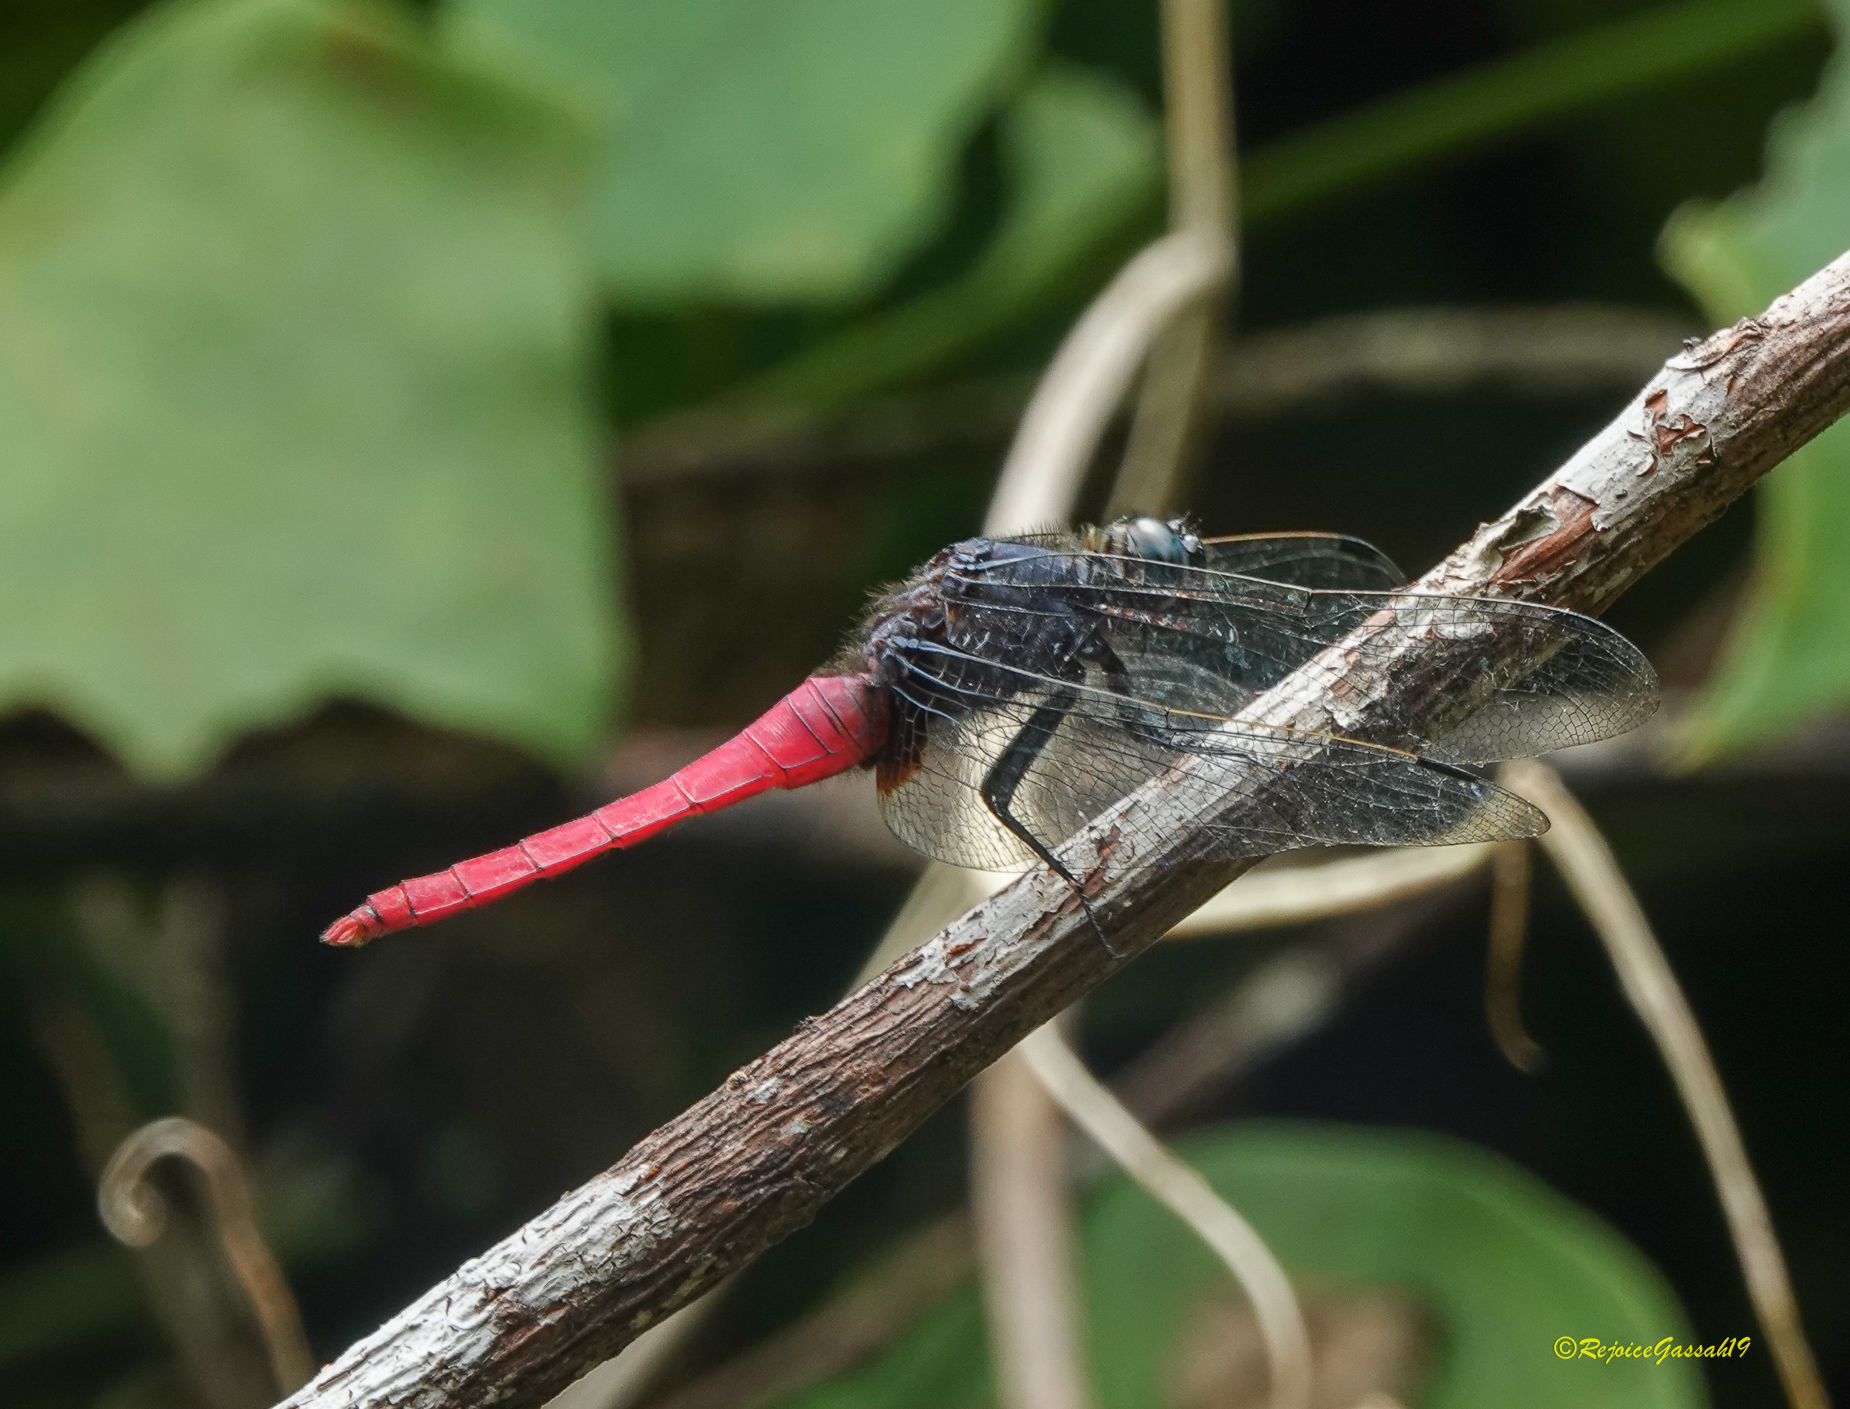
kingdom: Animalia
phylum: Arthropoda
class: Insecta
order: Odonata
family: Libellulidae
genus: Orthetrum
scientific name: Orthetrum pruinosum
